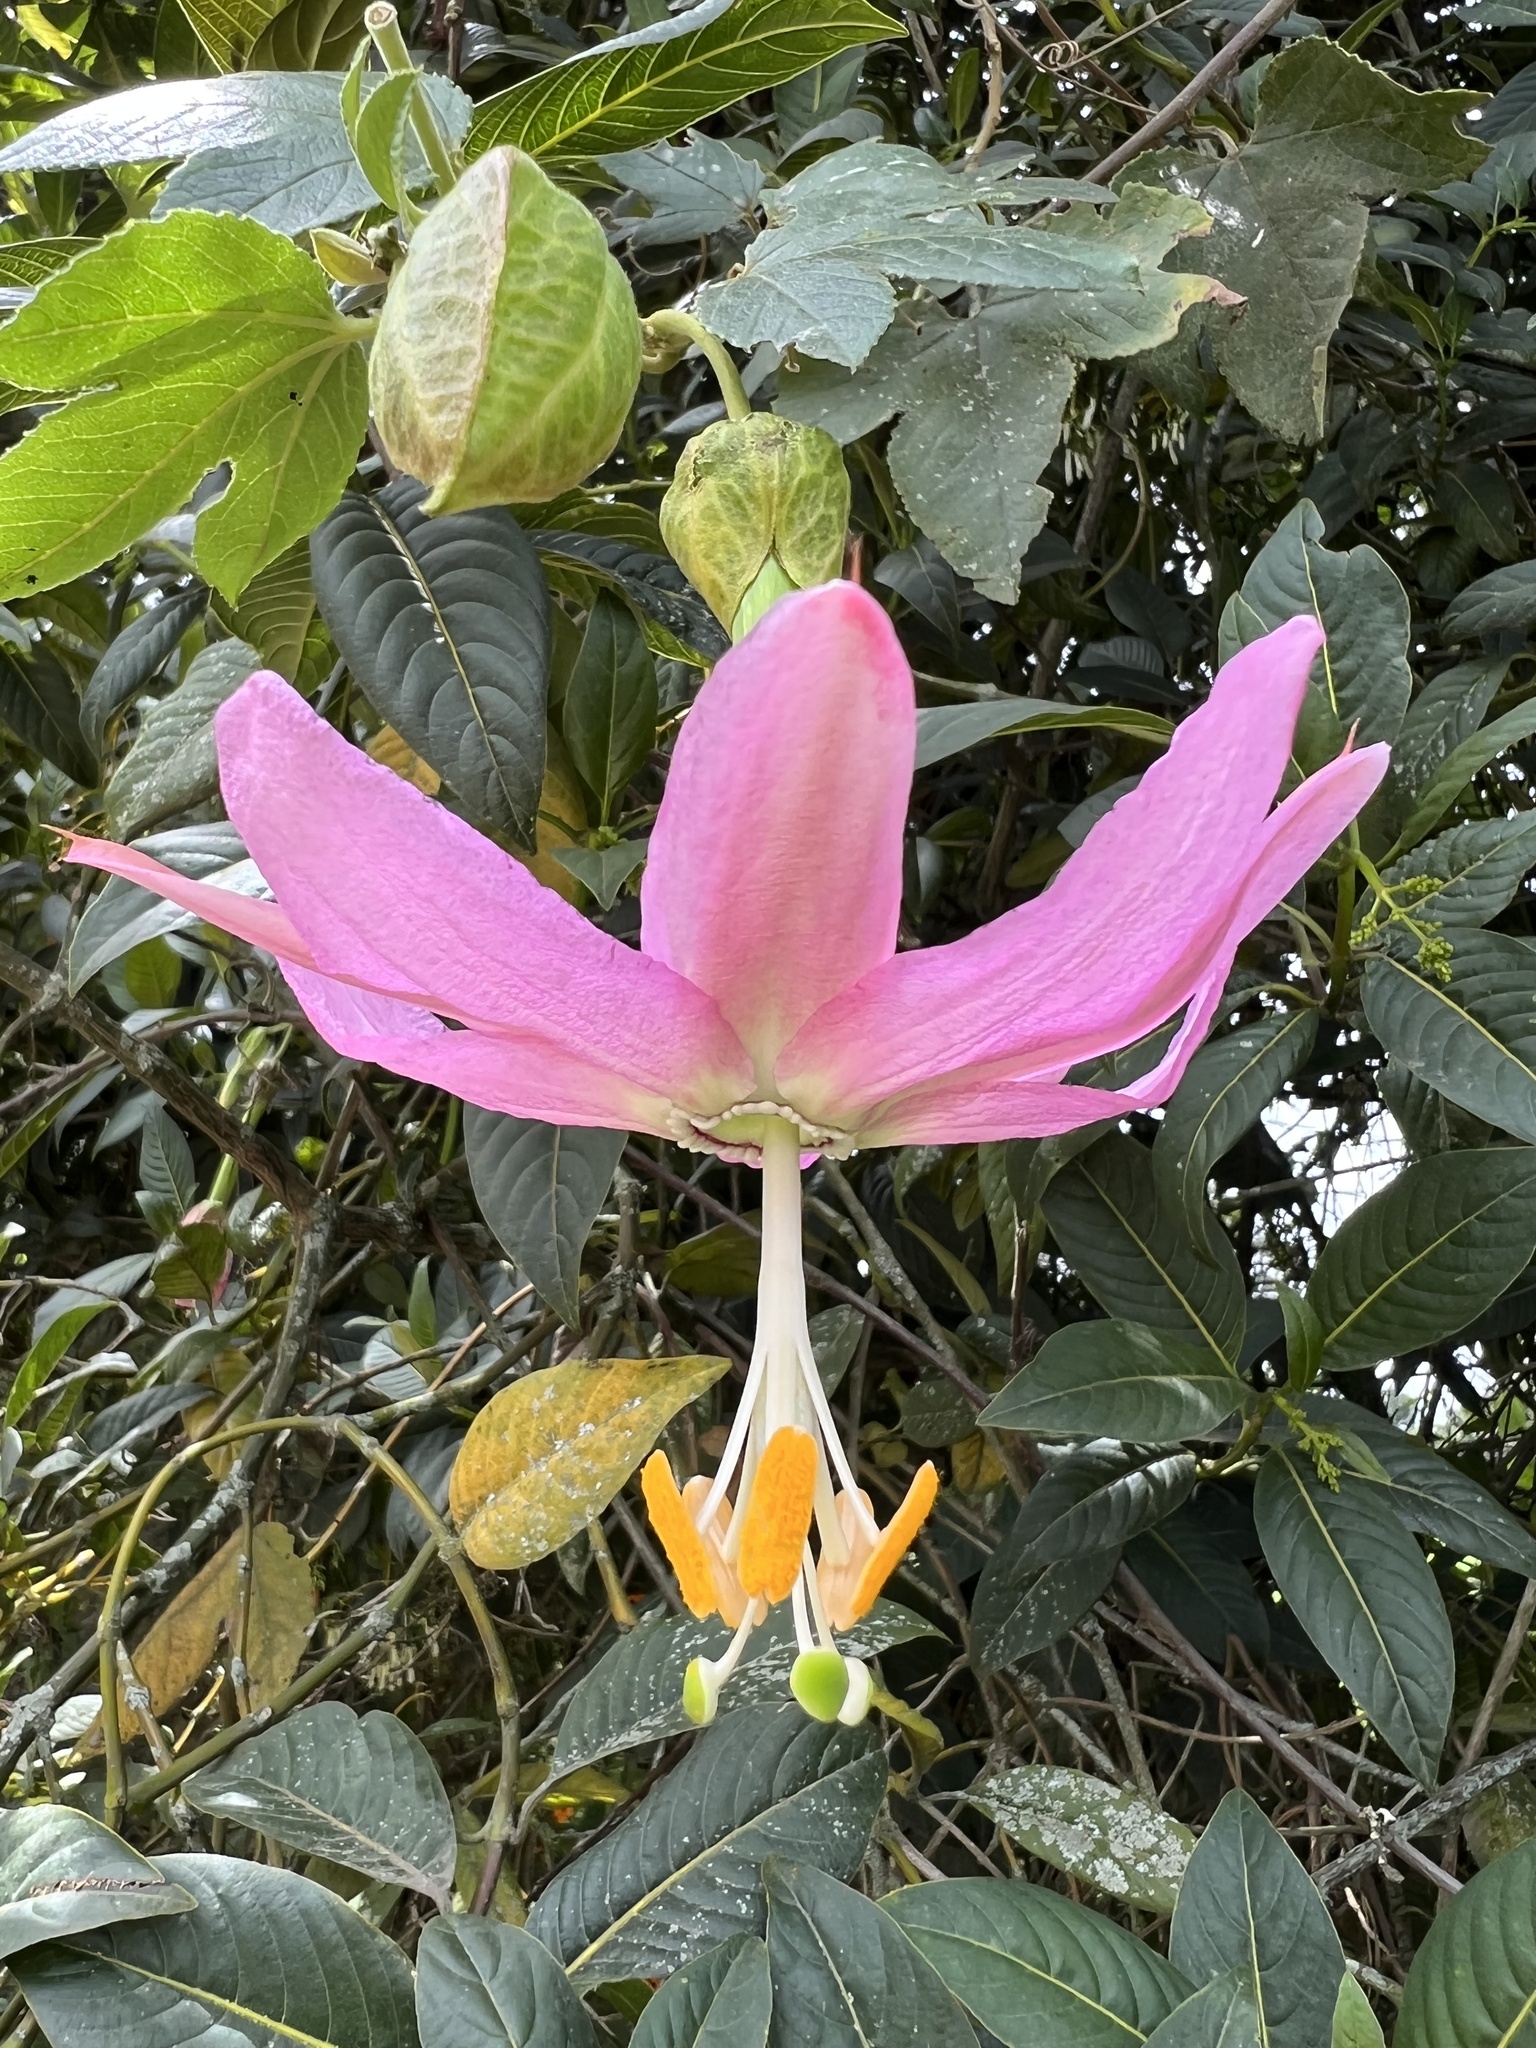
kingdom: Plantae
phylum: Tracheophyta
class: Magnoliopsida
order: Malpighiales
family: Passifloraceae
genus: Passiflora
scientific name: Passiflora tarminiana
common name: Banana poka
